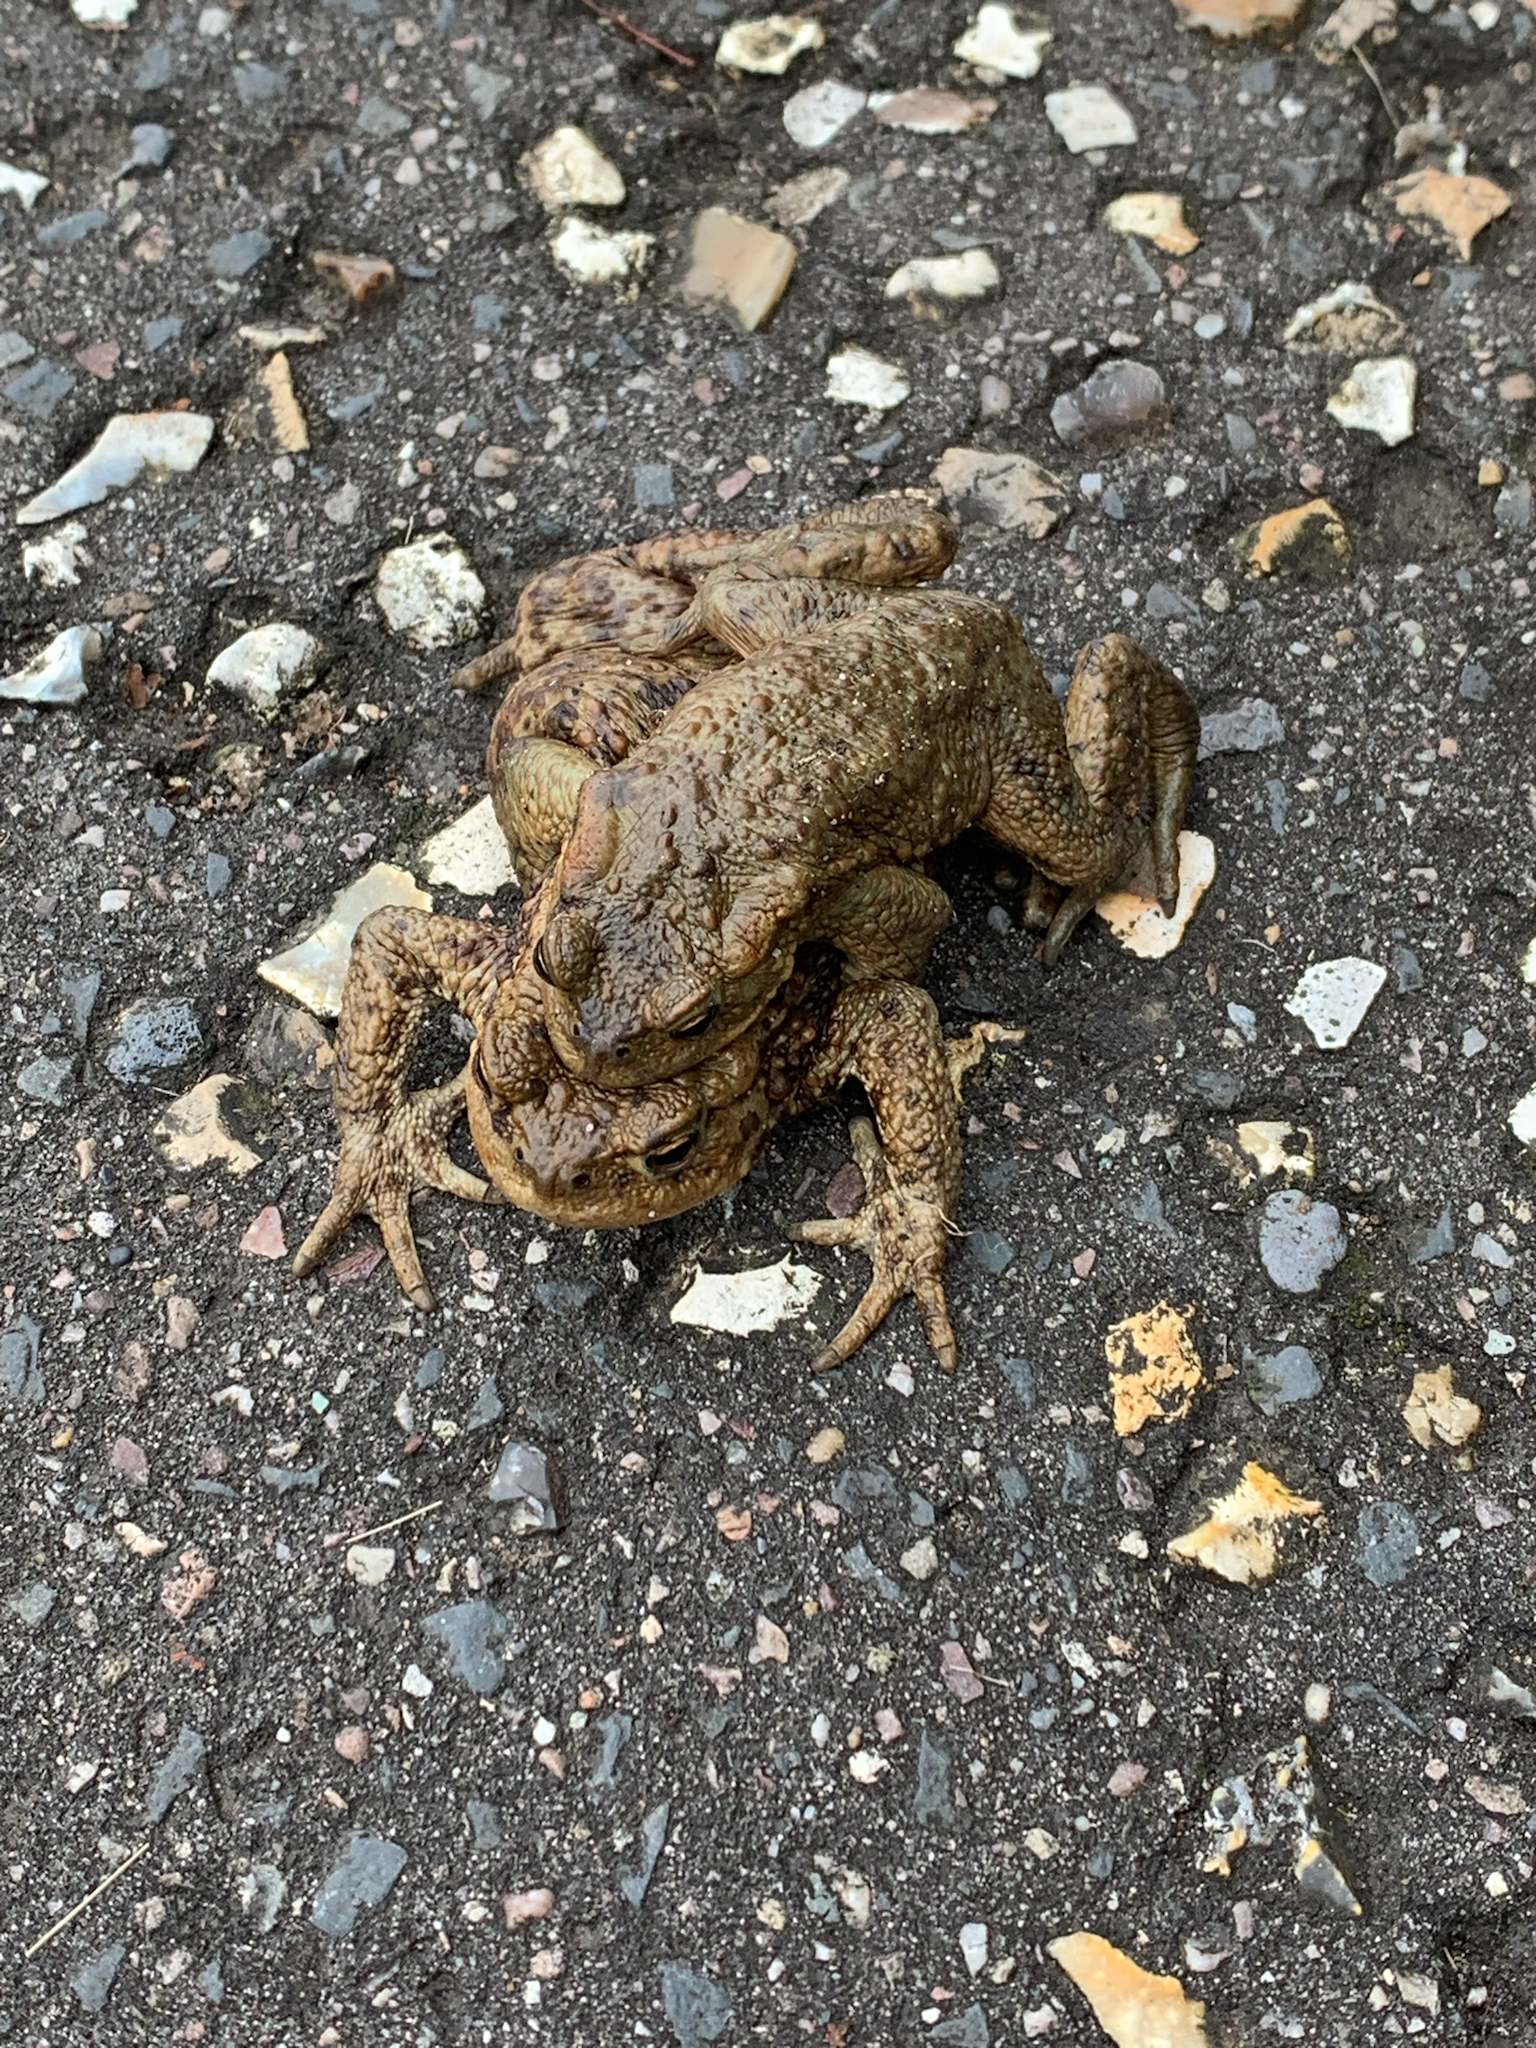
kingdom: Animalia
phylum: Chordata
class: Amphibia
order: Anura
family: Bufonidae
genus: Bufo
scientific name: Bufo bufo
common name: Common toad
